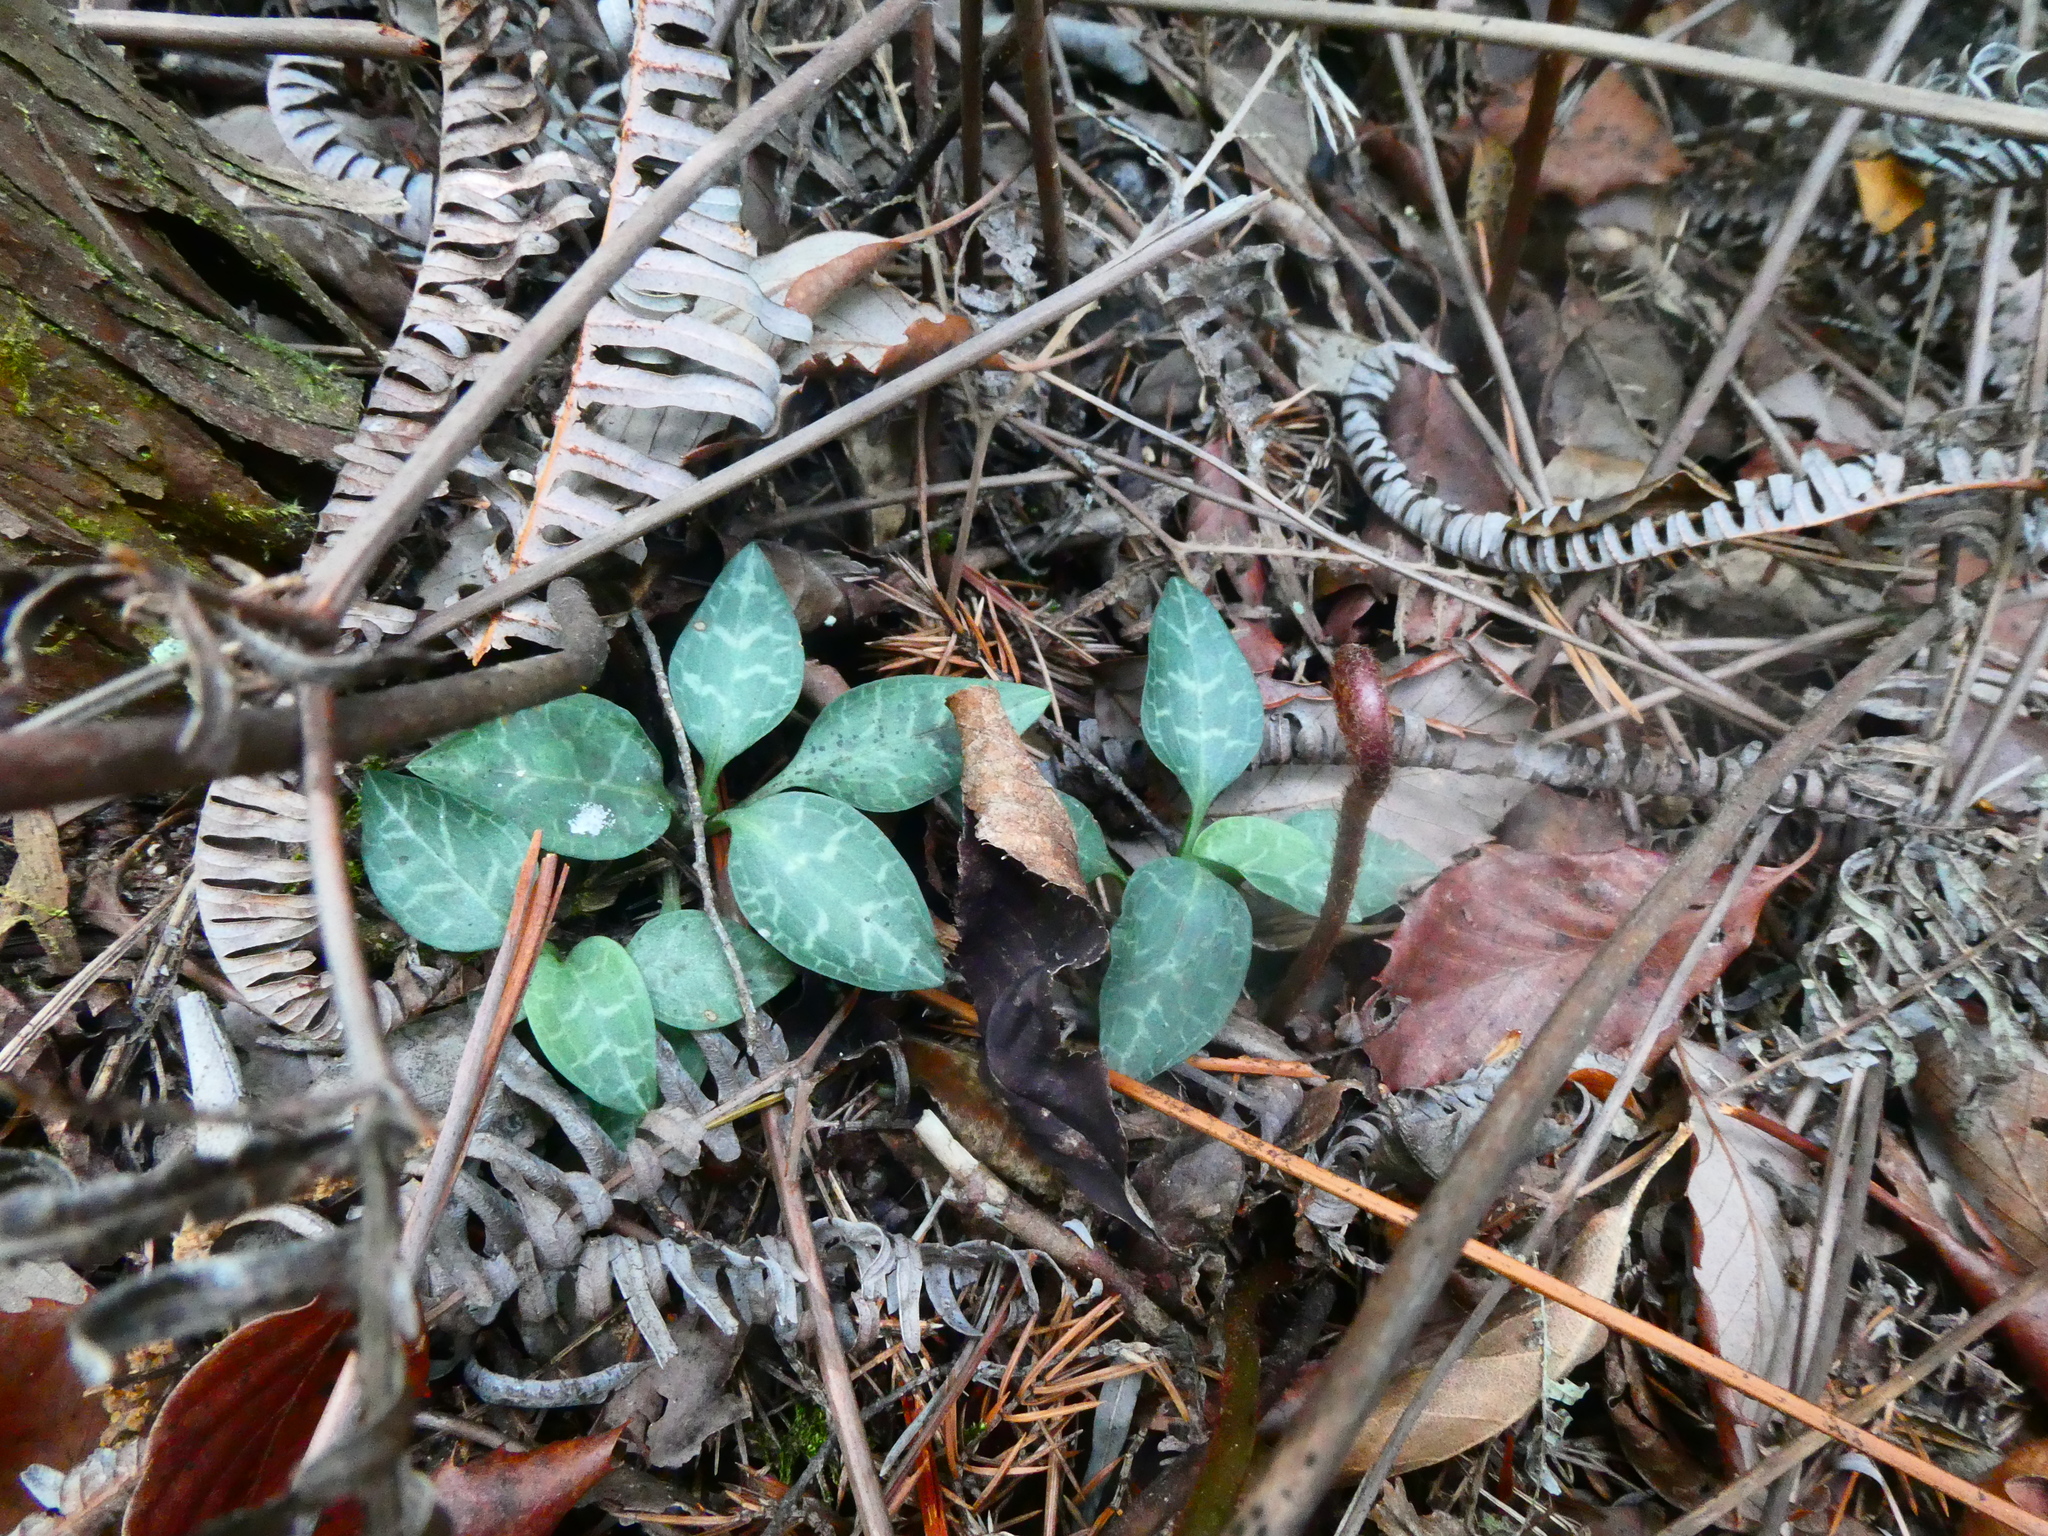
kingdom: Plantae
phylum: Tracheophyta
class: Liliopsida
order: Asparagales
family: Orchidaceae
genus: Goodyera
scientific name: Goodyera schlechtendaliana
